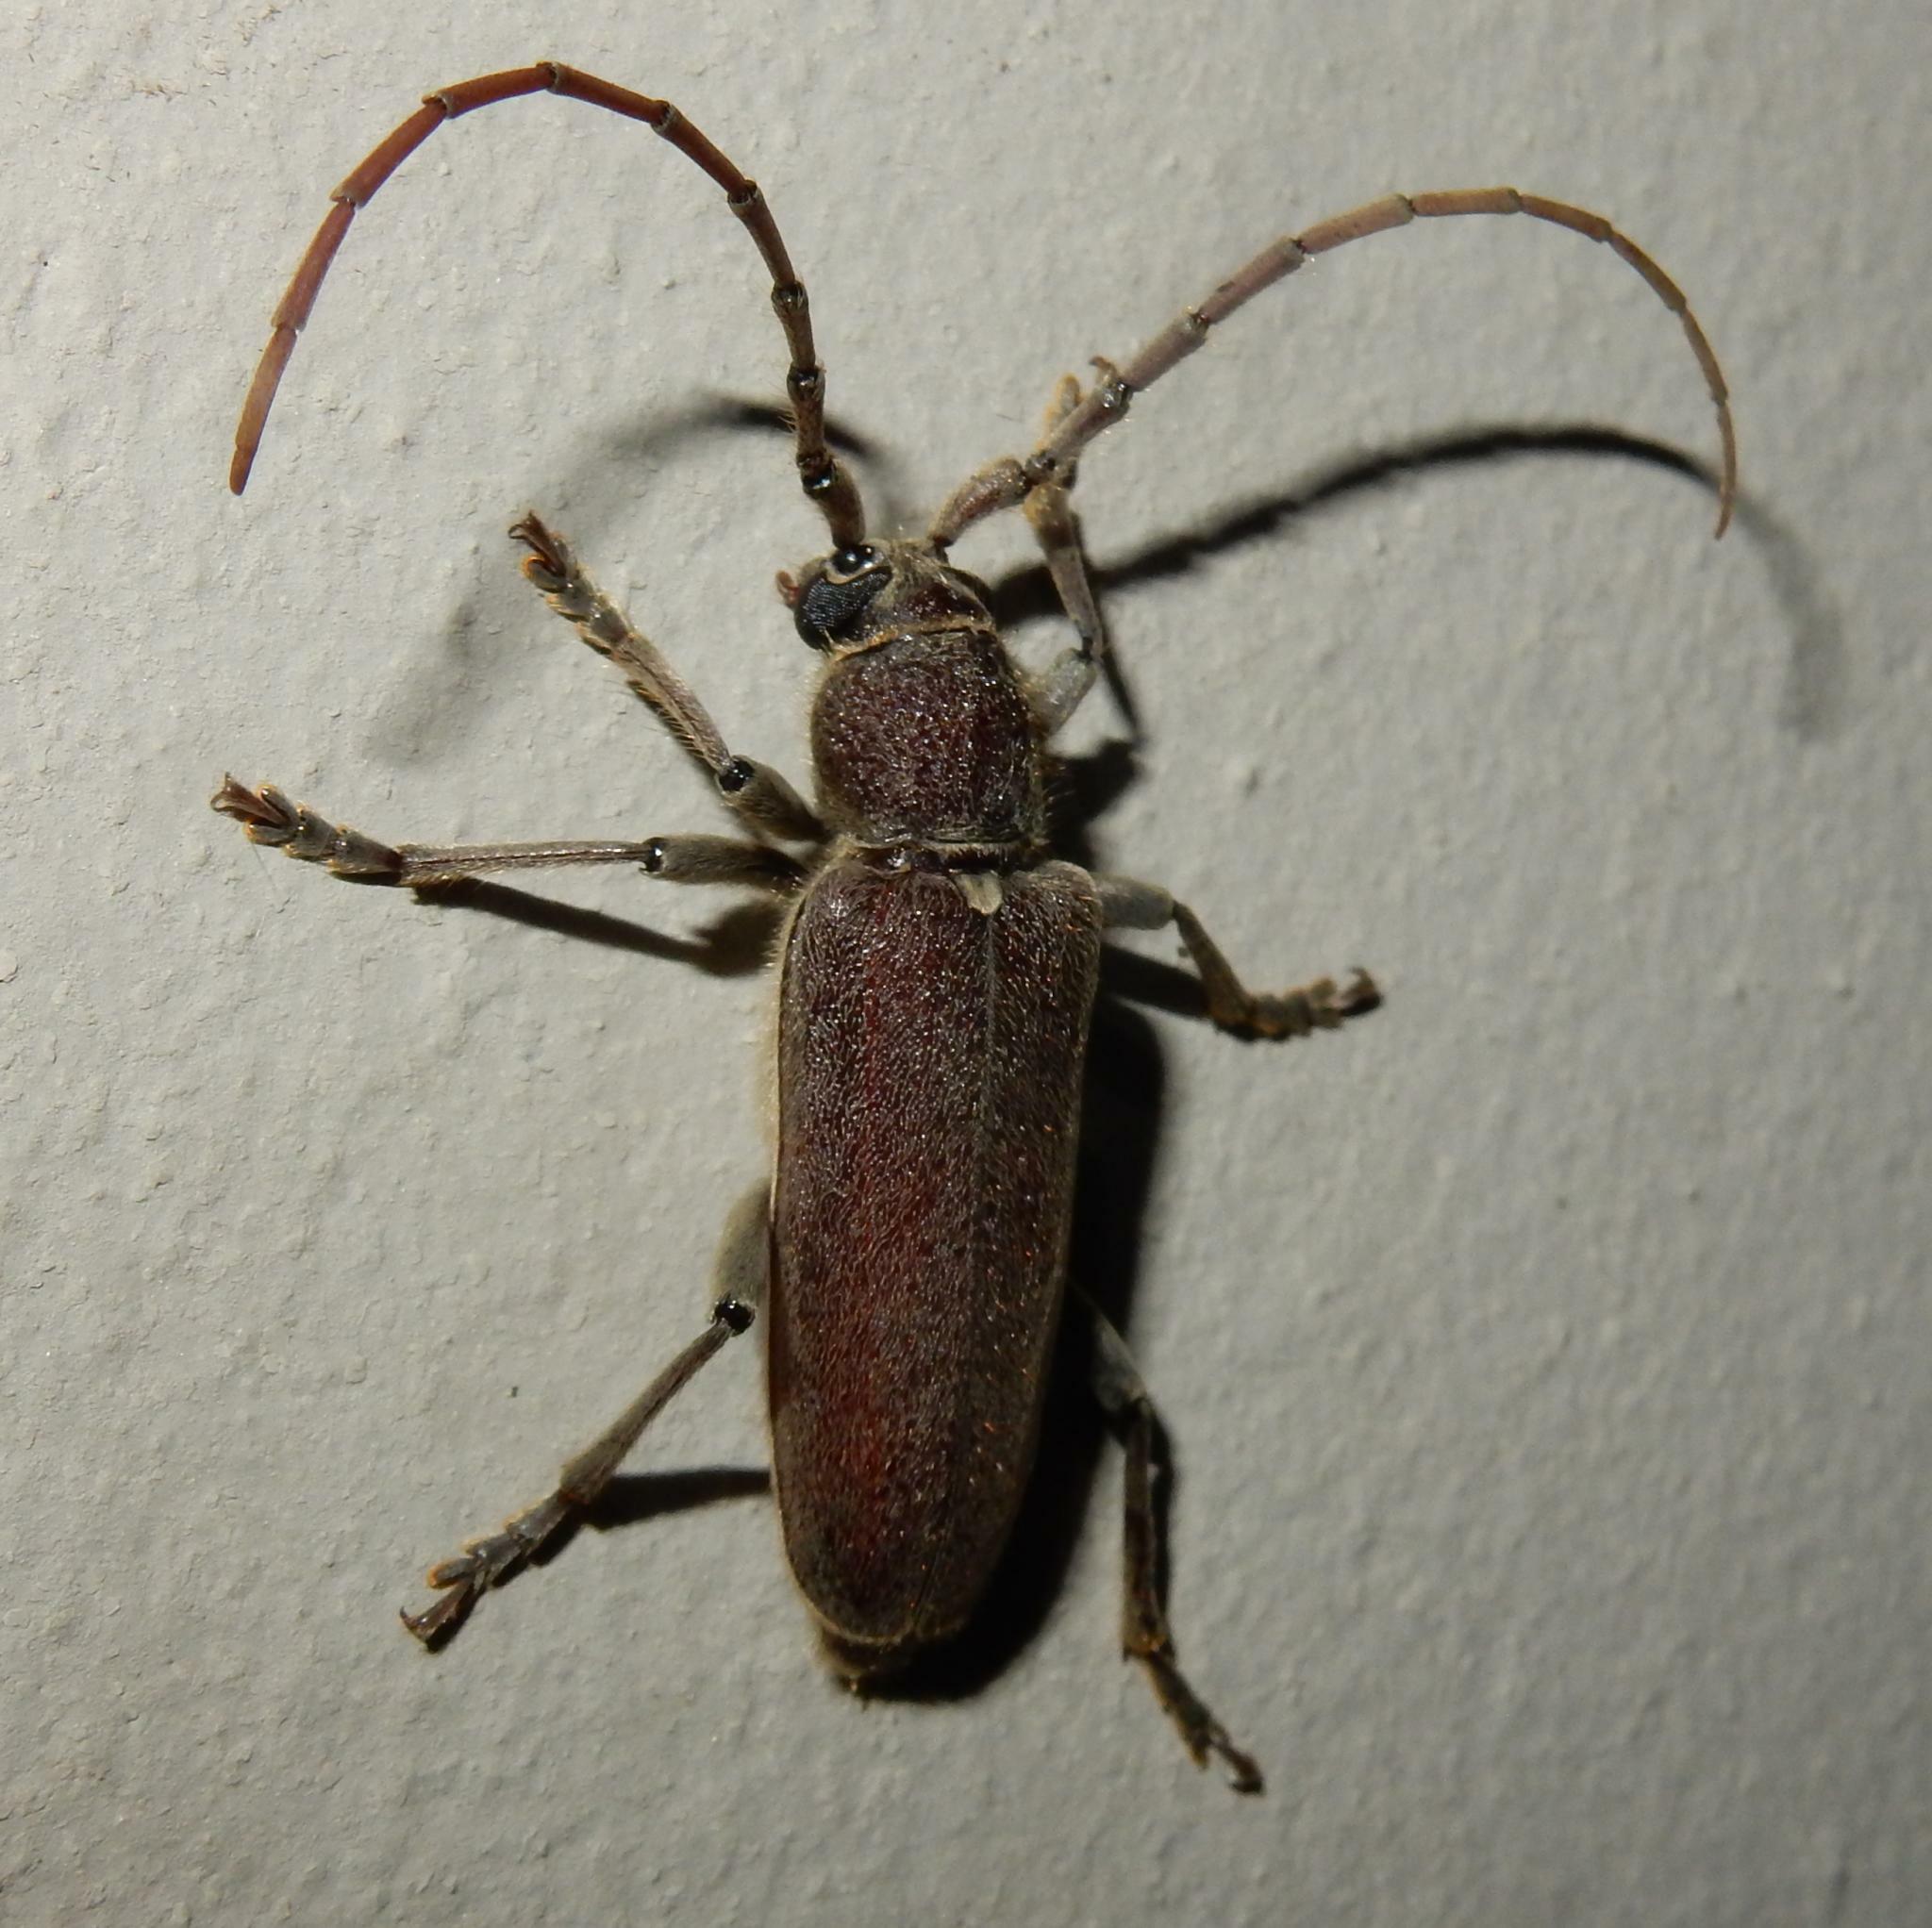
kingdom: Animalia
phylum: Arthropoda
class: Insecta
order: Coleoptera
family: Cerambycidae
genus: Africophanes
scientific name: Africophanes amicus
